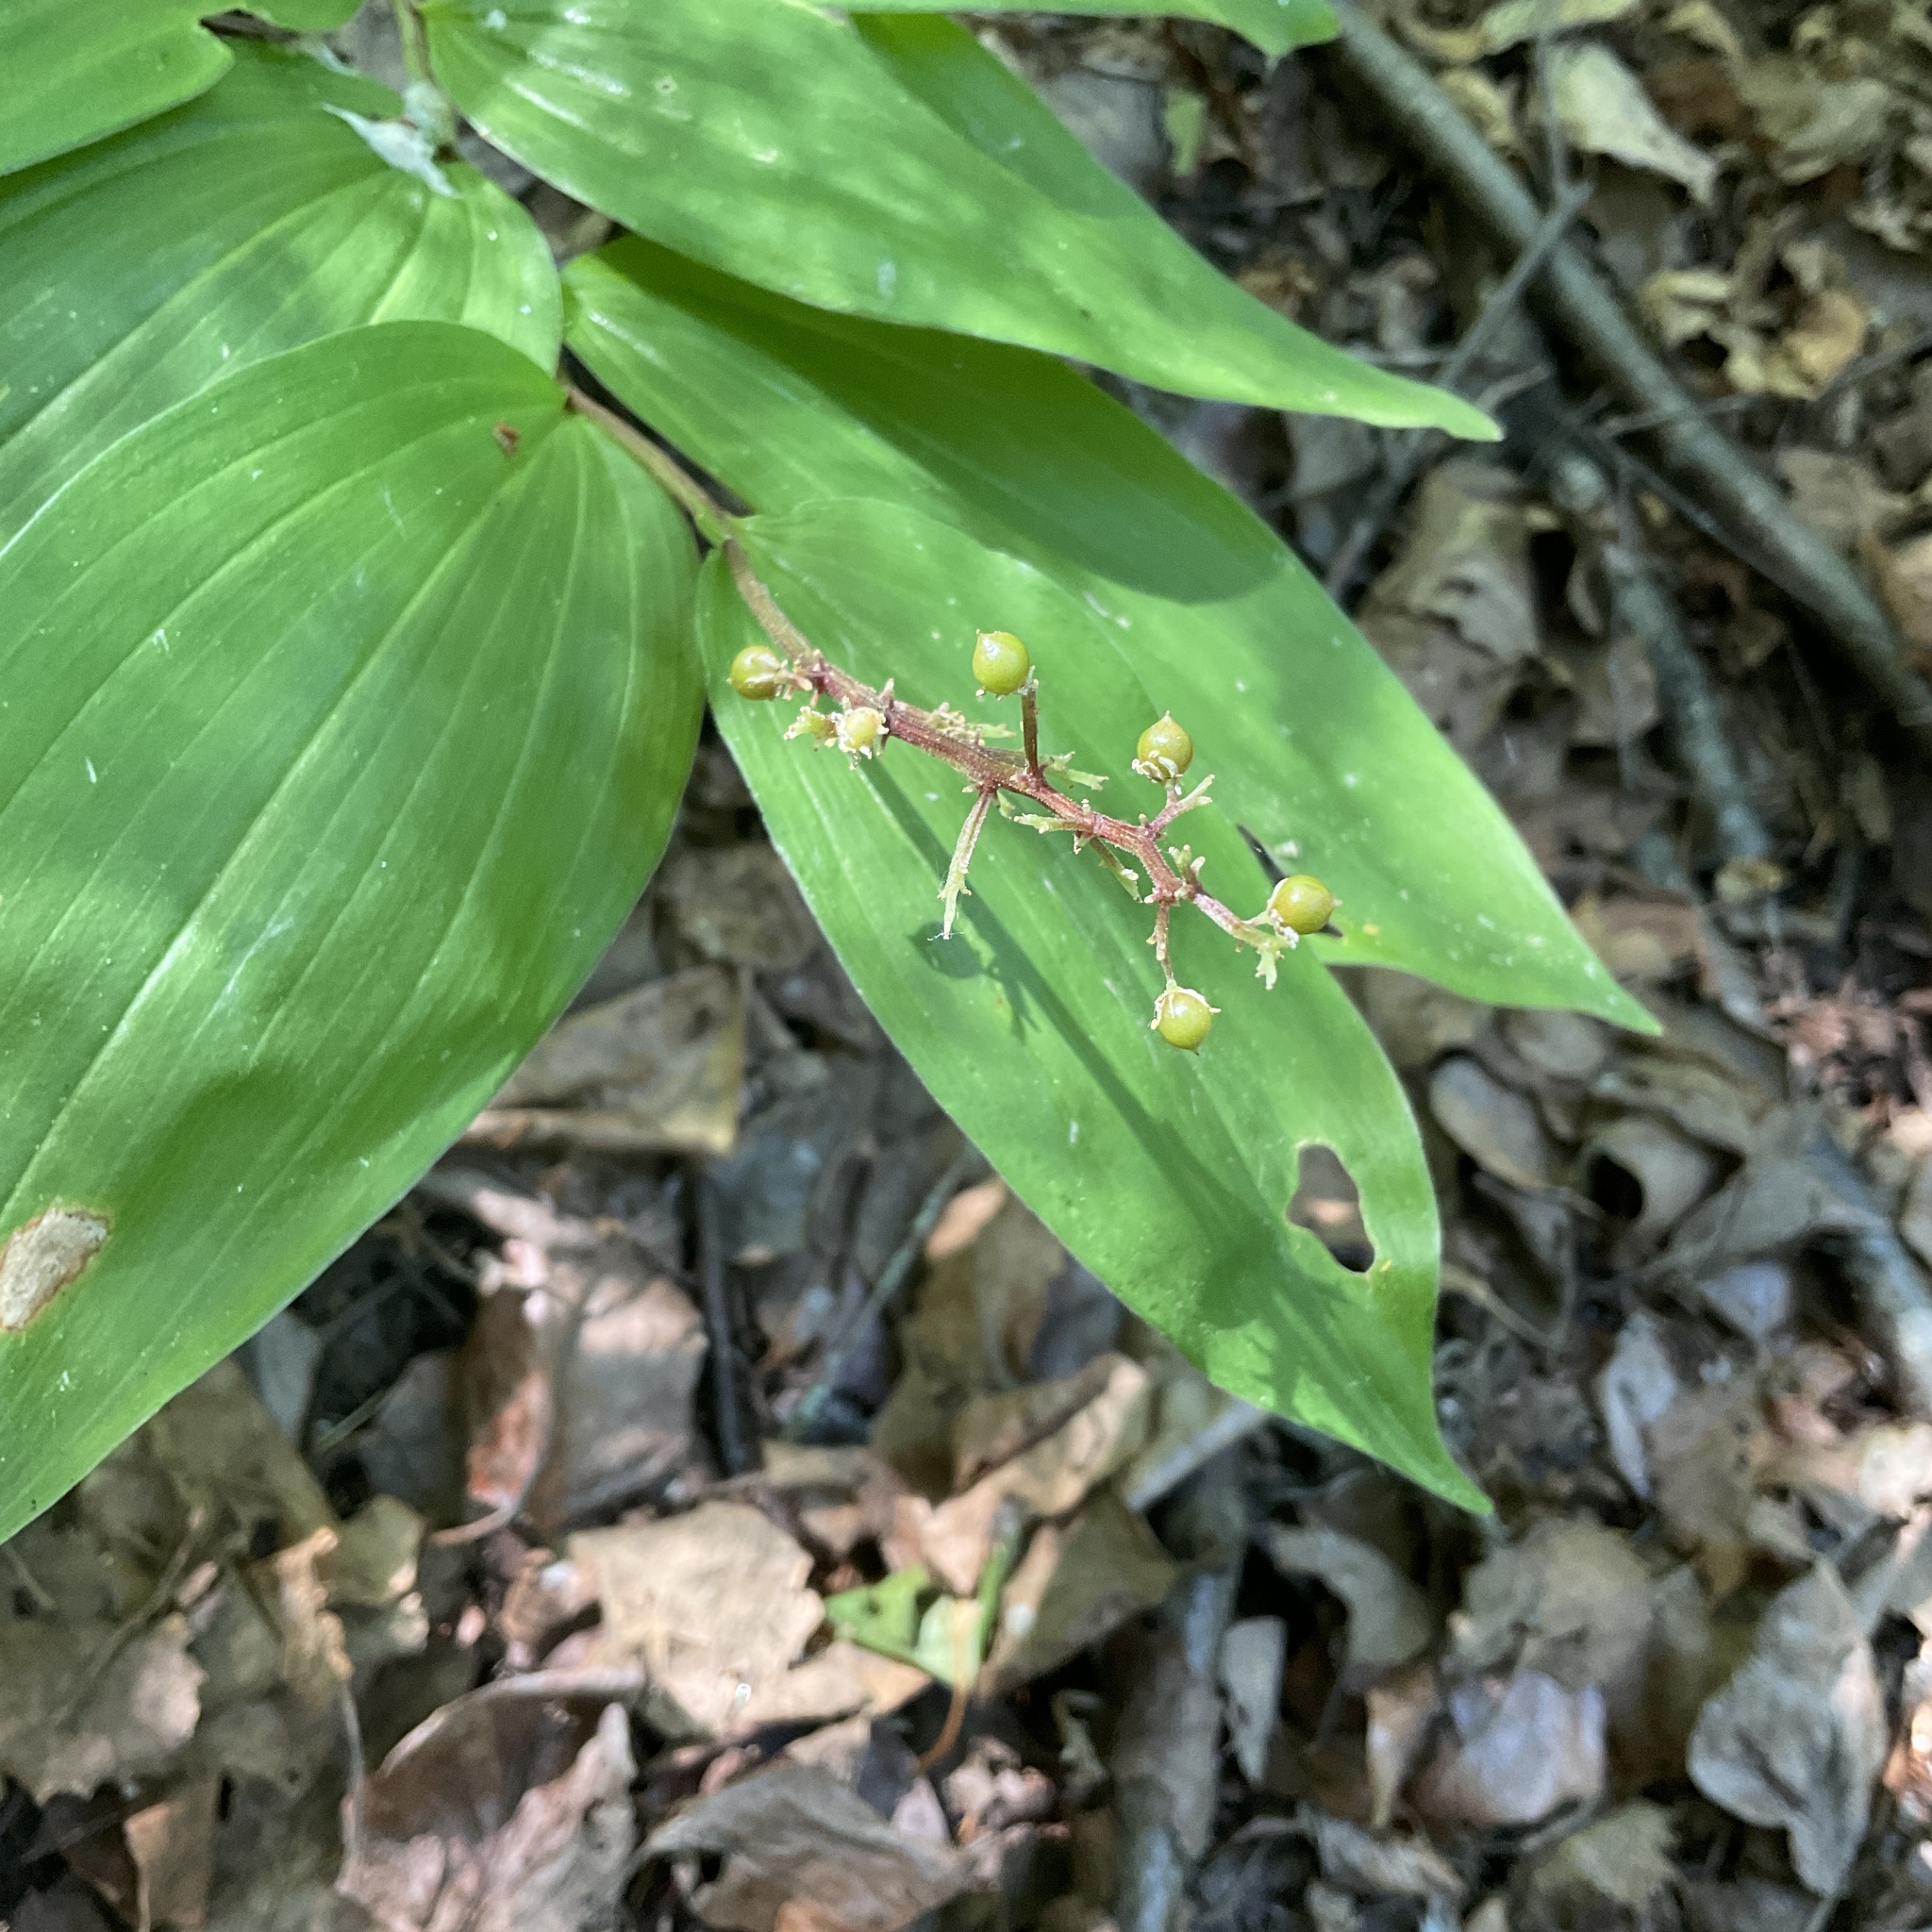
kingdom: Plantae
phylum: Tracheophyta
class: Liliopsida
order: Asparagales
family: Asparagaceae
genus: Maianthemum
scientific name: Maianthemum racemosum
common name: False spikenard
